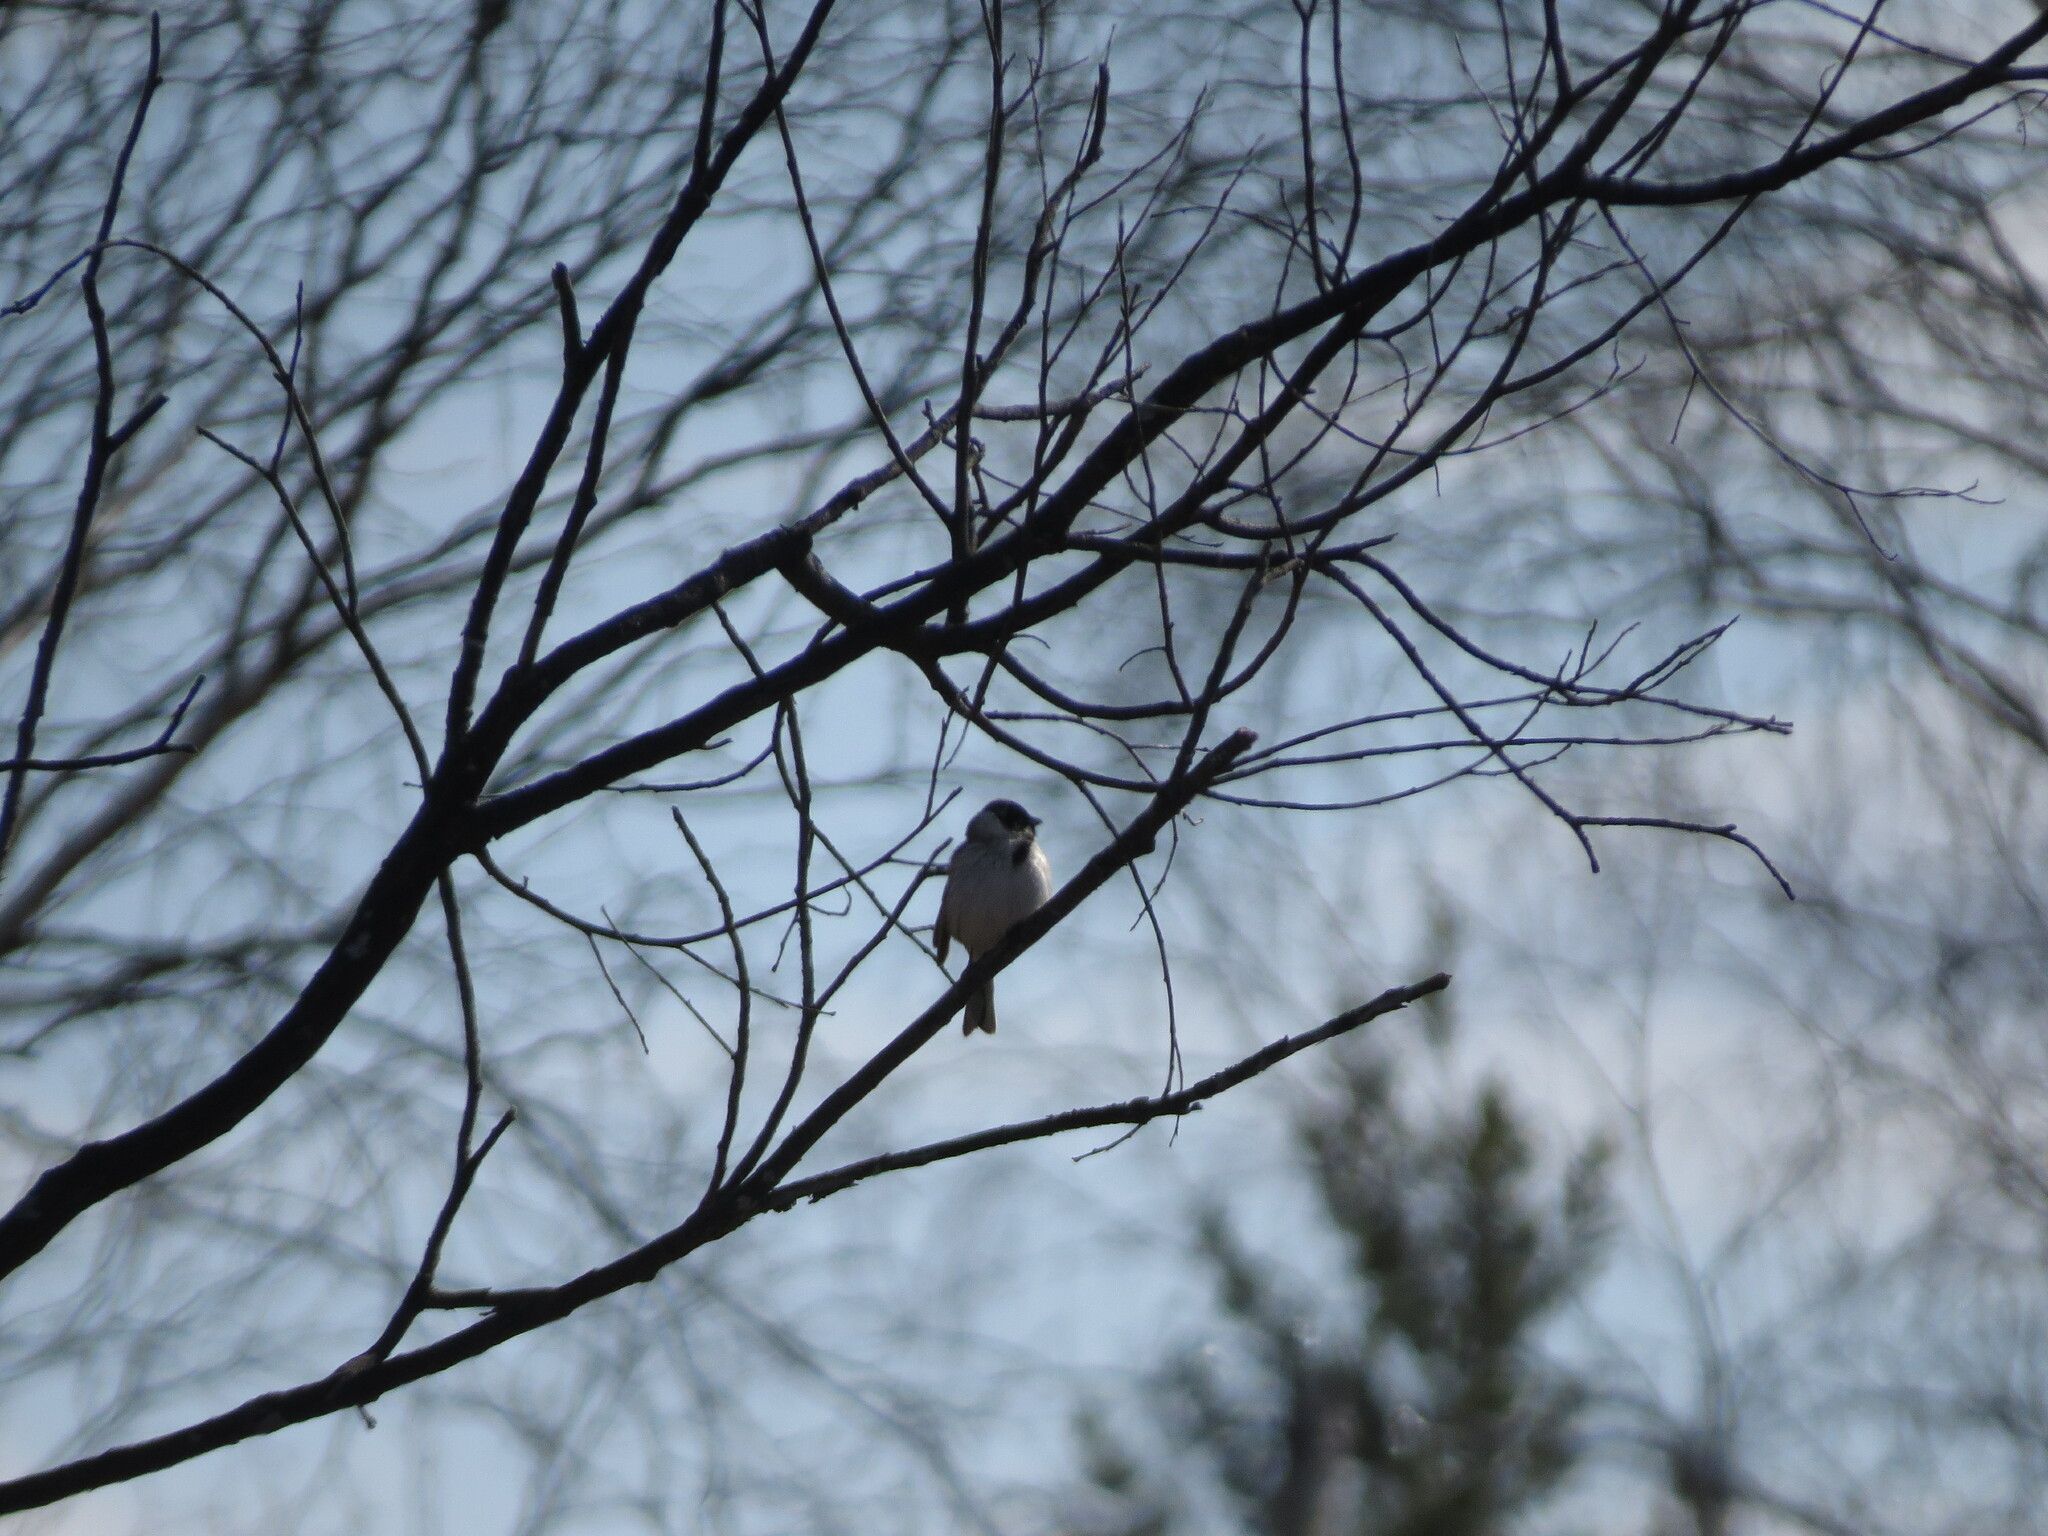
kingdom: Animalia
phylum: Chordata
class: Aves
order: Passeriformes
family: Emberizidae
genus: Emberiza
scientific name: Emberiza schoeniclus
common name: Reed bunting
